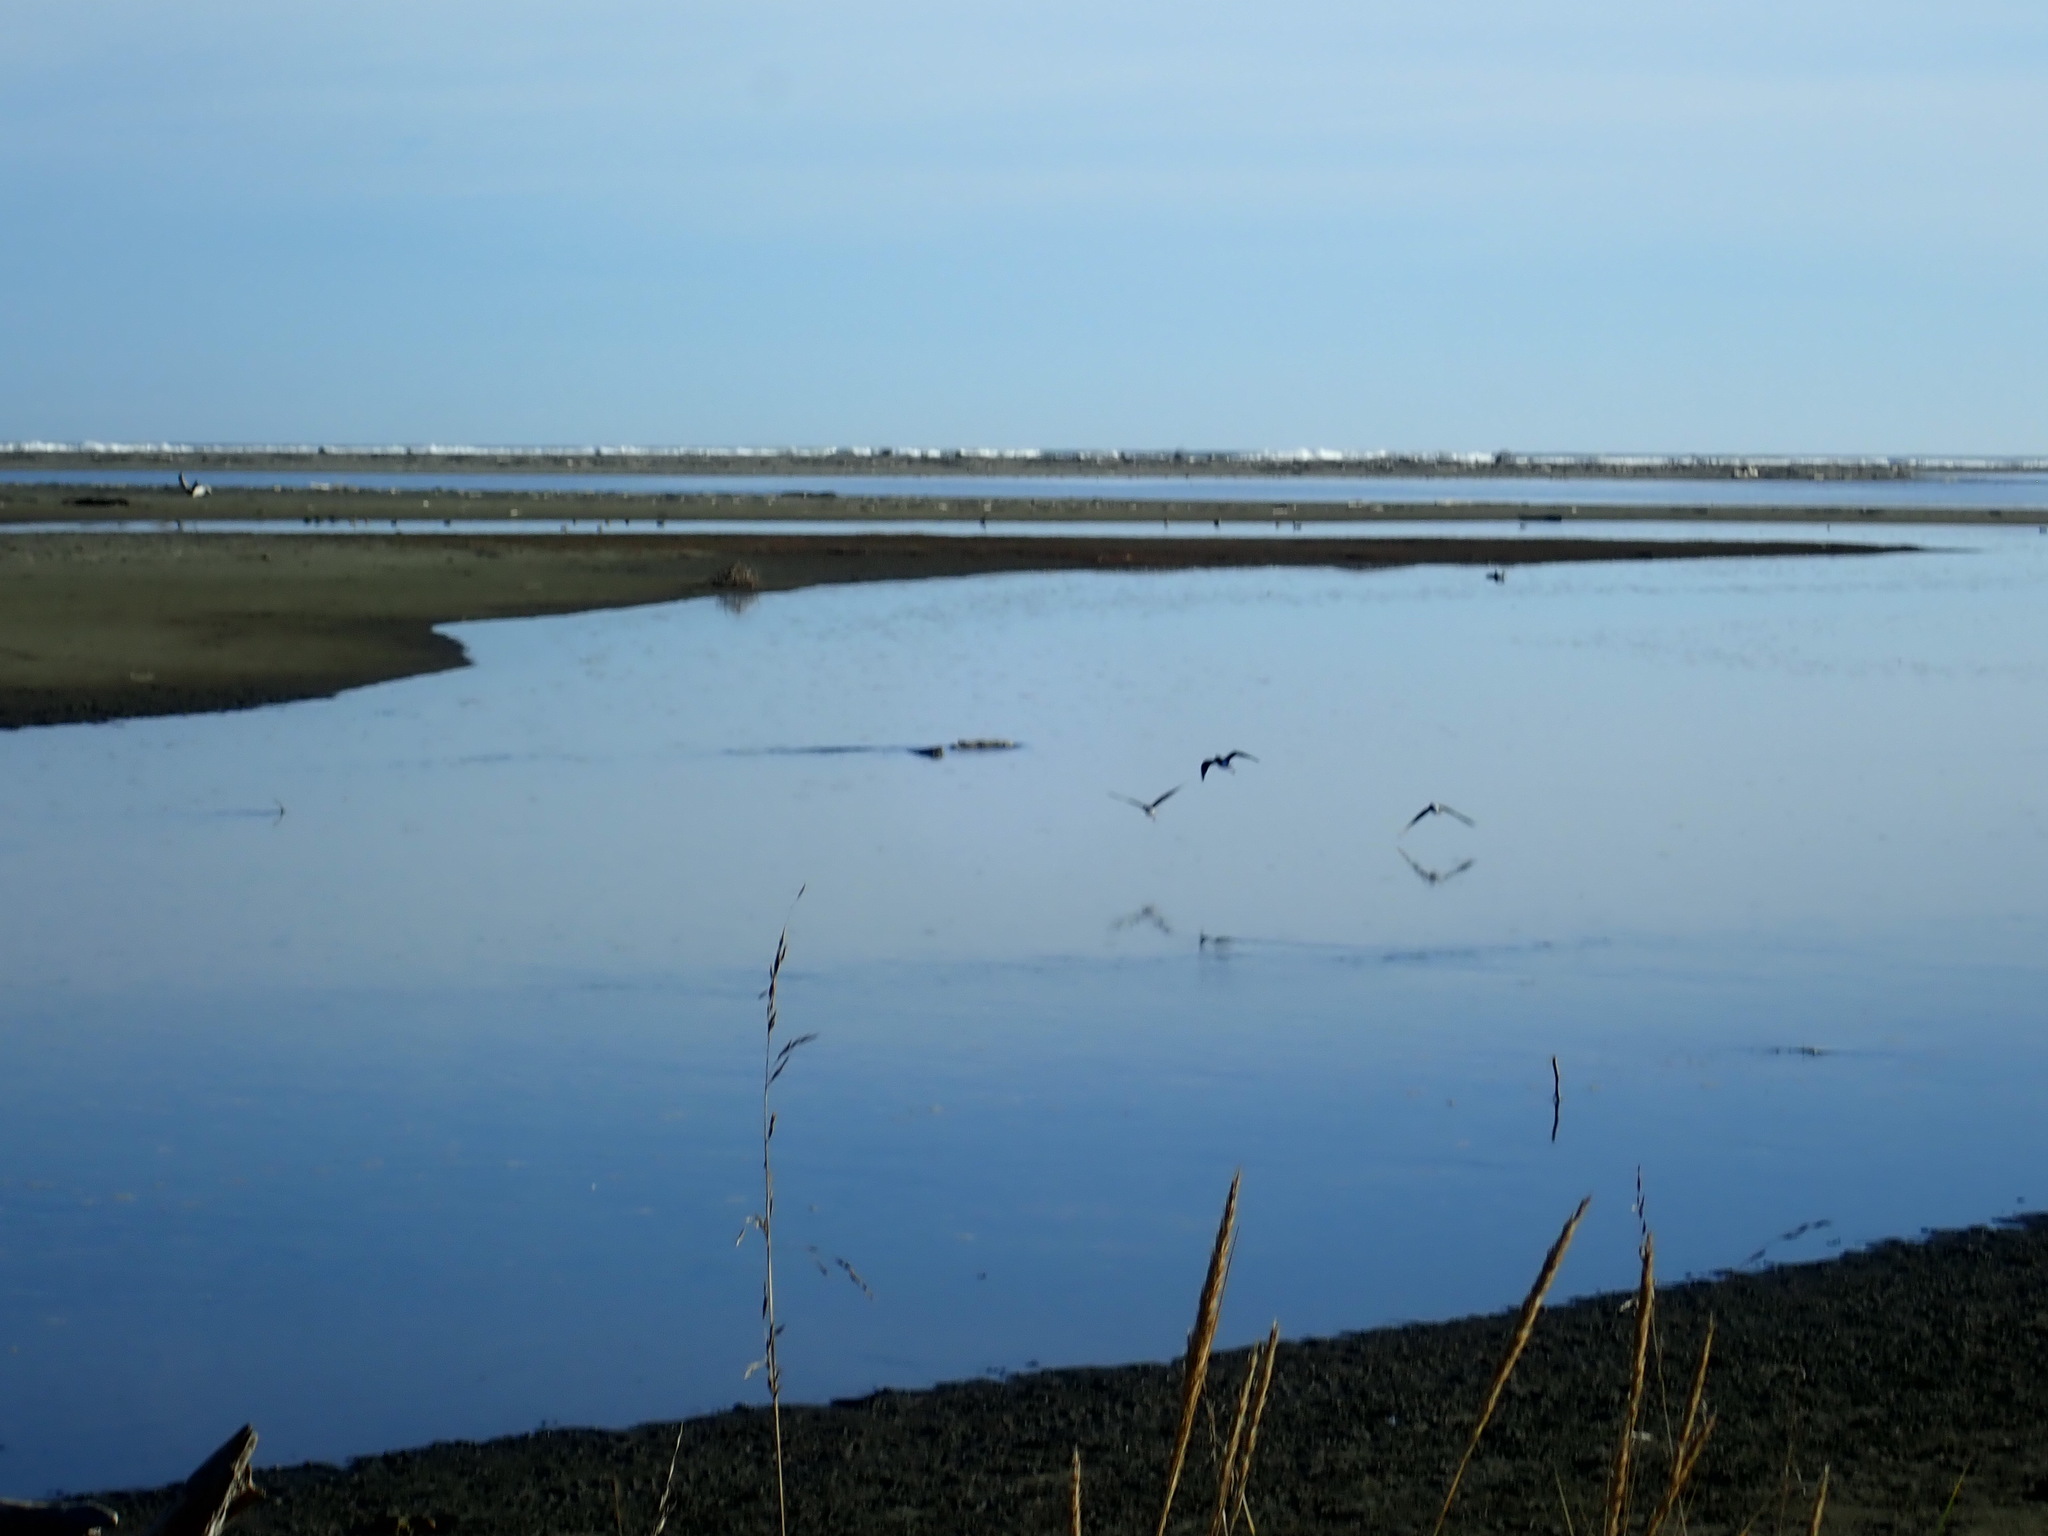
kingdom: Animalia
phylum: Chordata
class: Aves
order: Charadriiformes
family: Recurvirostridae
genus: Himantopus
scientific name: Himantopus leucocephalus
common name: White-headed stilt
